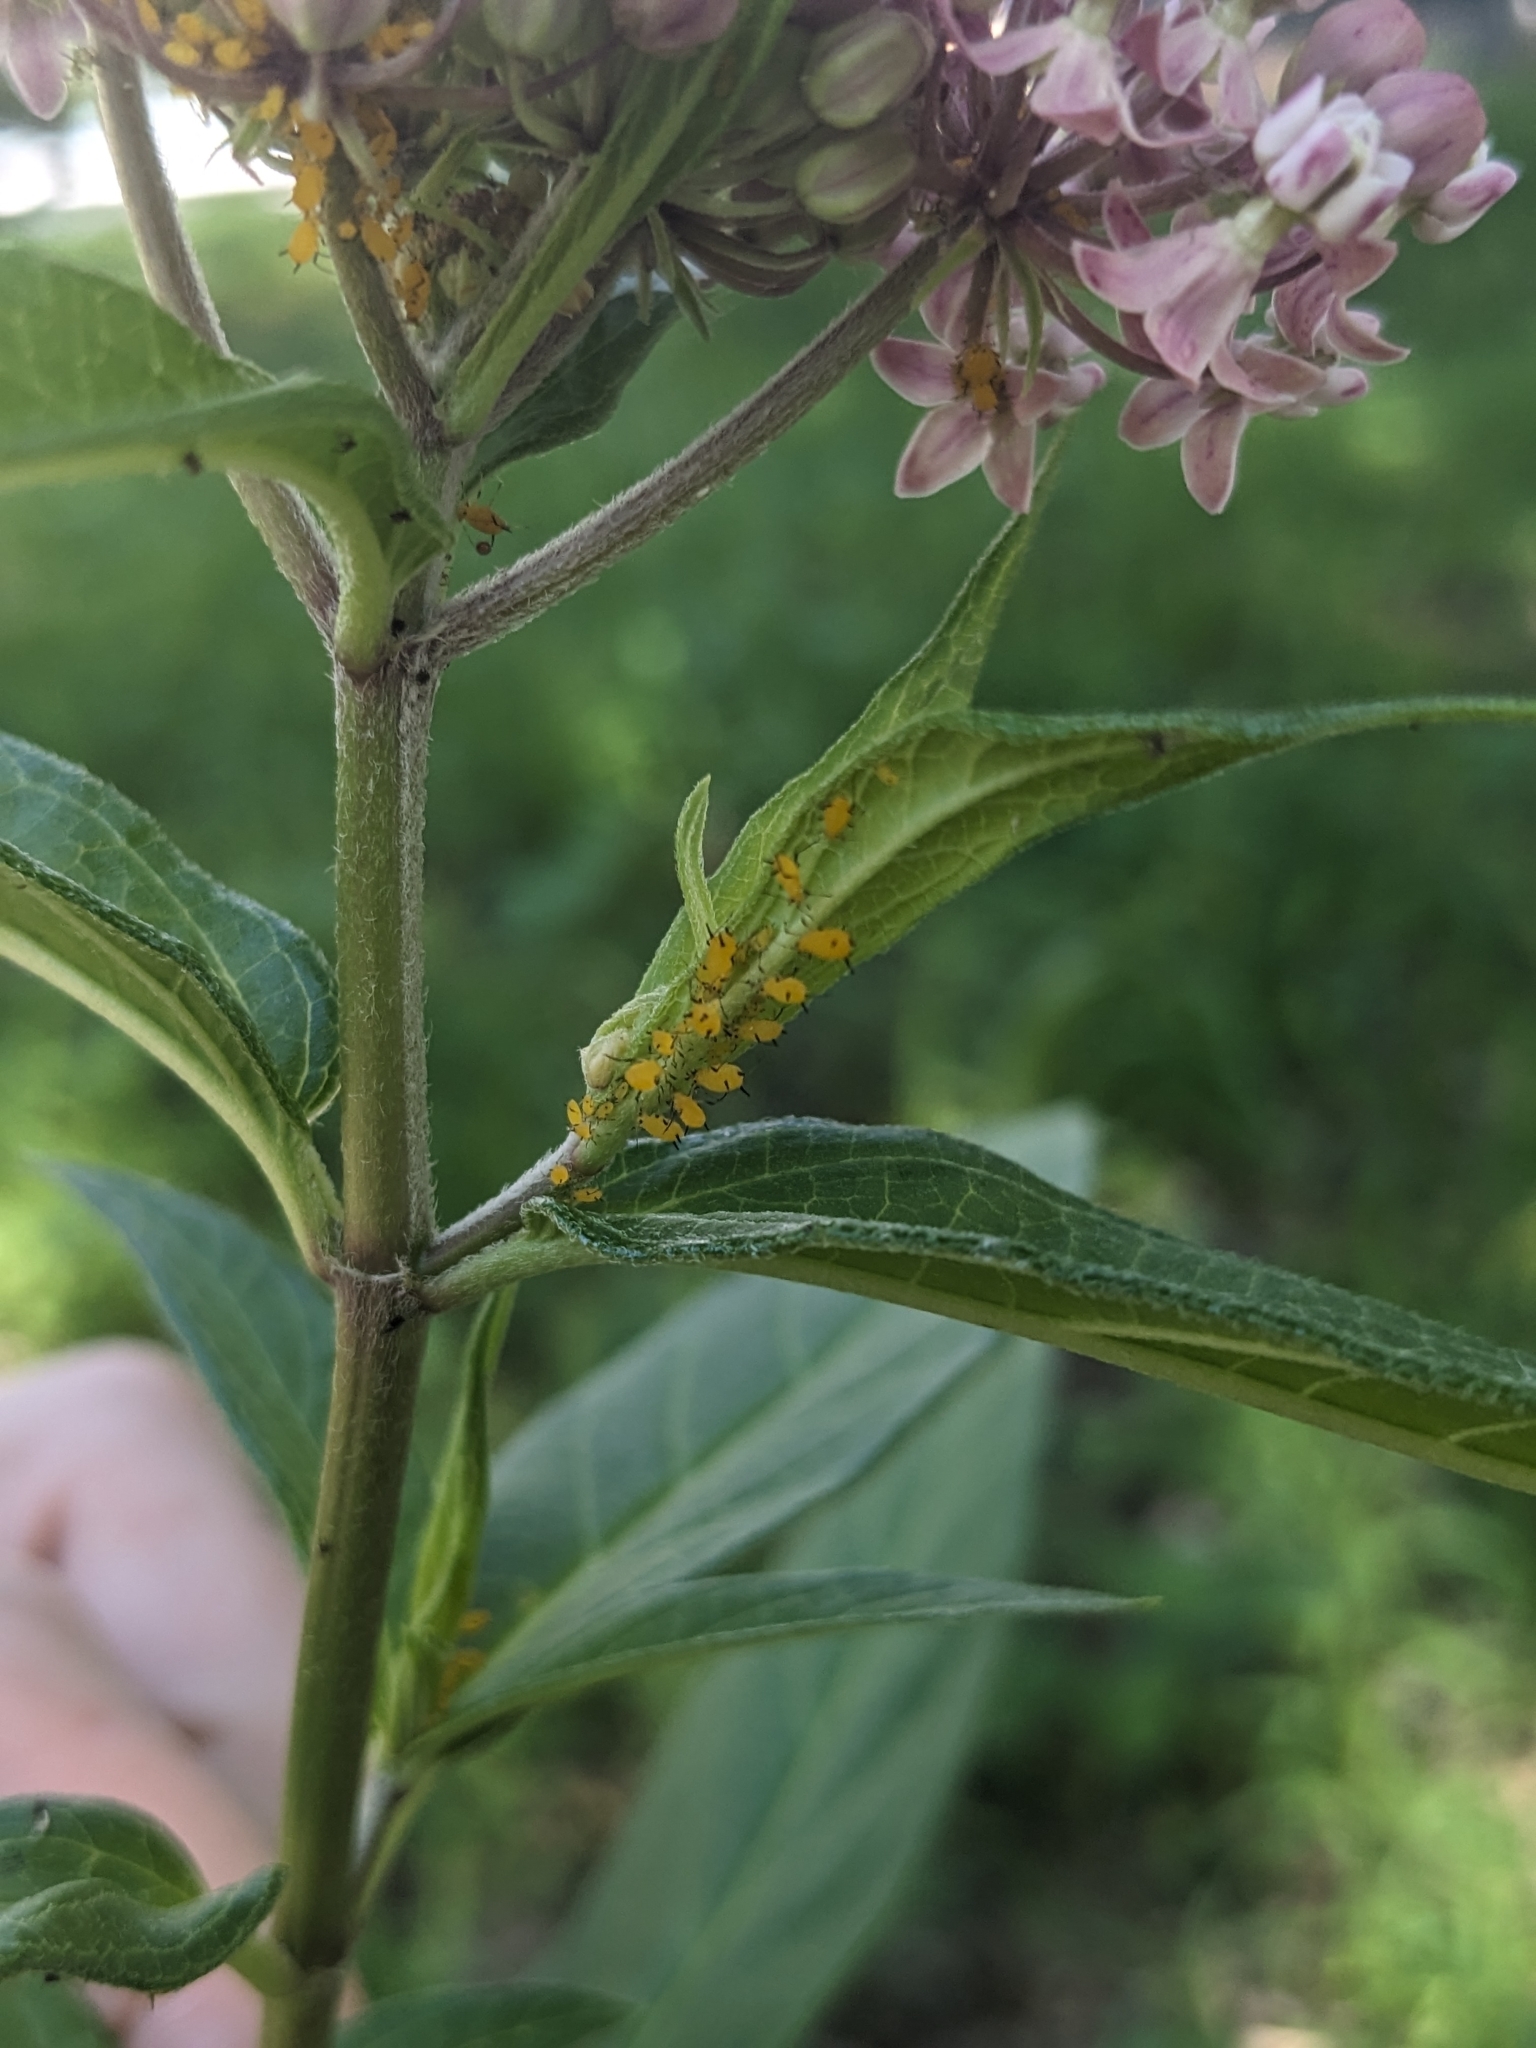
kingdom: Animalia
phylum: Arthropoda
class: Insecta
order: Hemiptera
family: Aphididae
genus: Aphis
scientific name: Aphis nerii
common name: Oleander aphid
